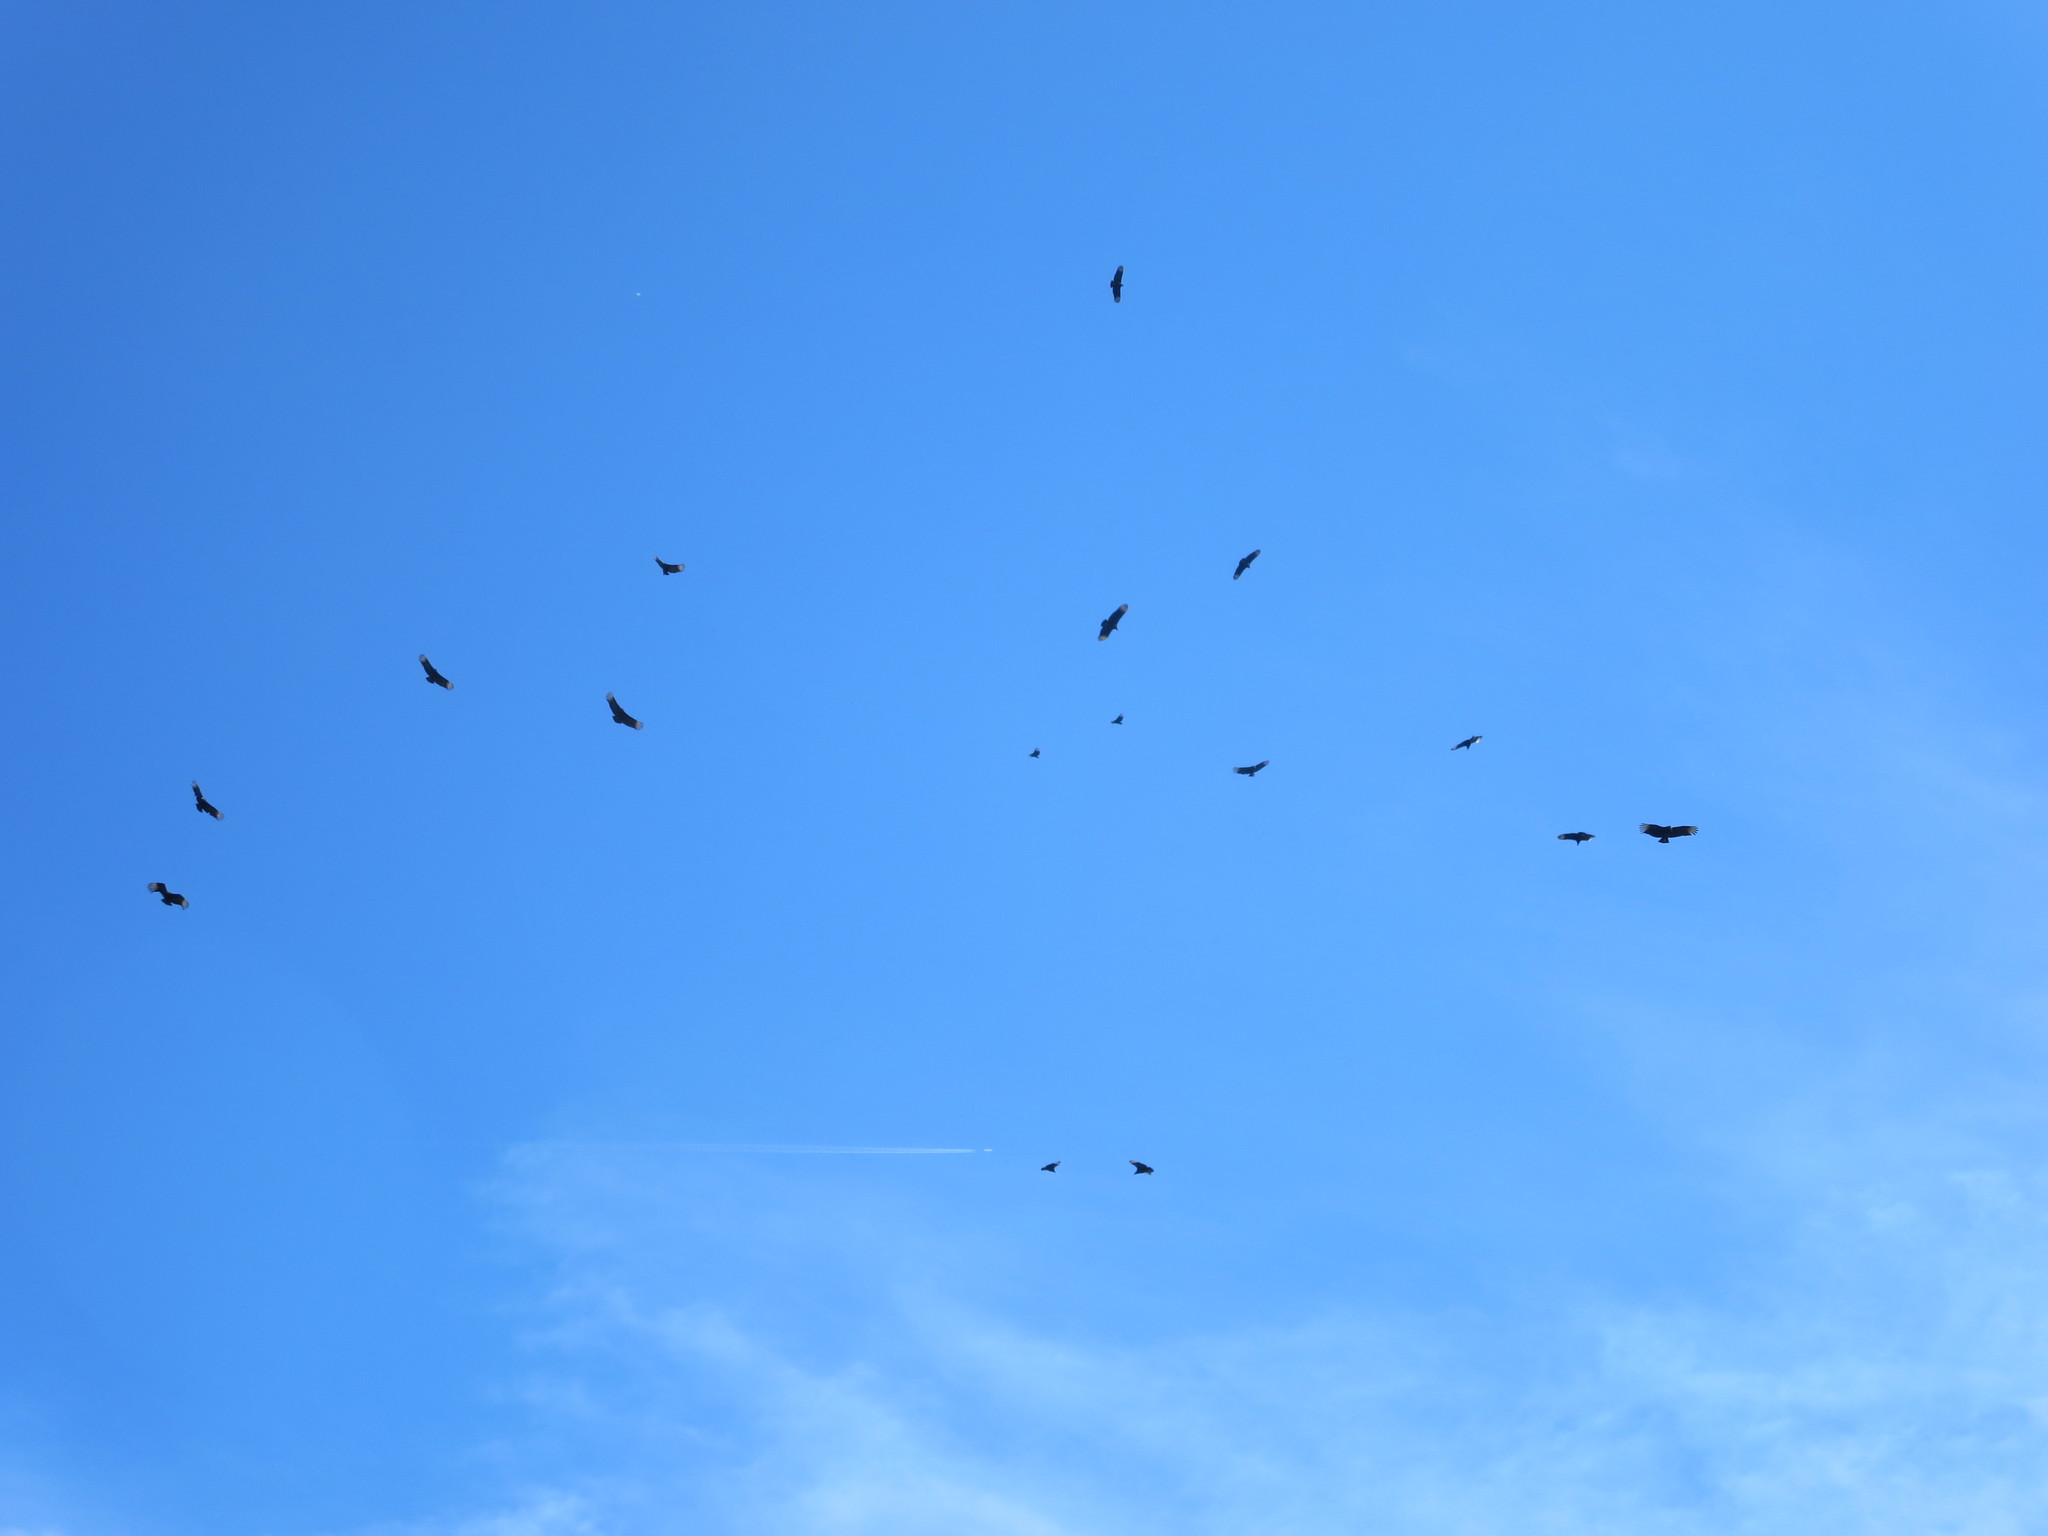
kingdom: Animalia
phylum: Chordata
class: Aves
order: Accipitriformes
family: Cathartidae
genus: Coragyps
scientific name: Coragyps atratus
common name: Black vulture
